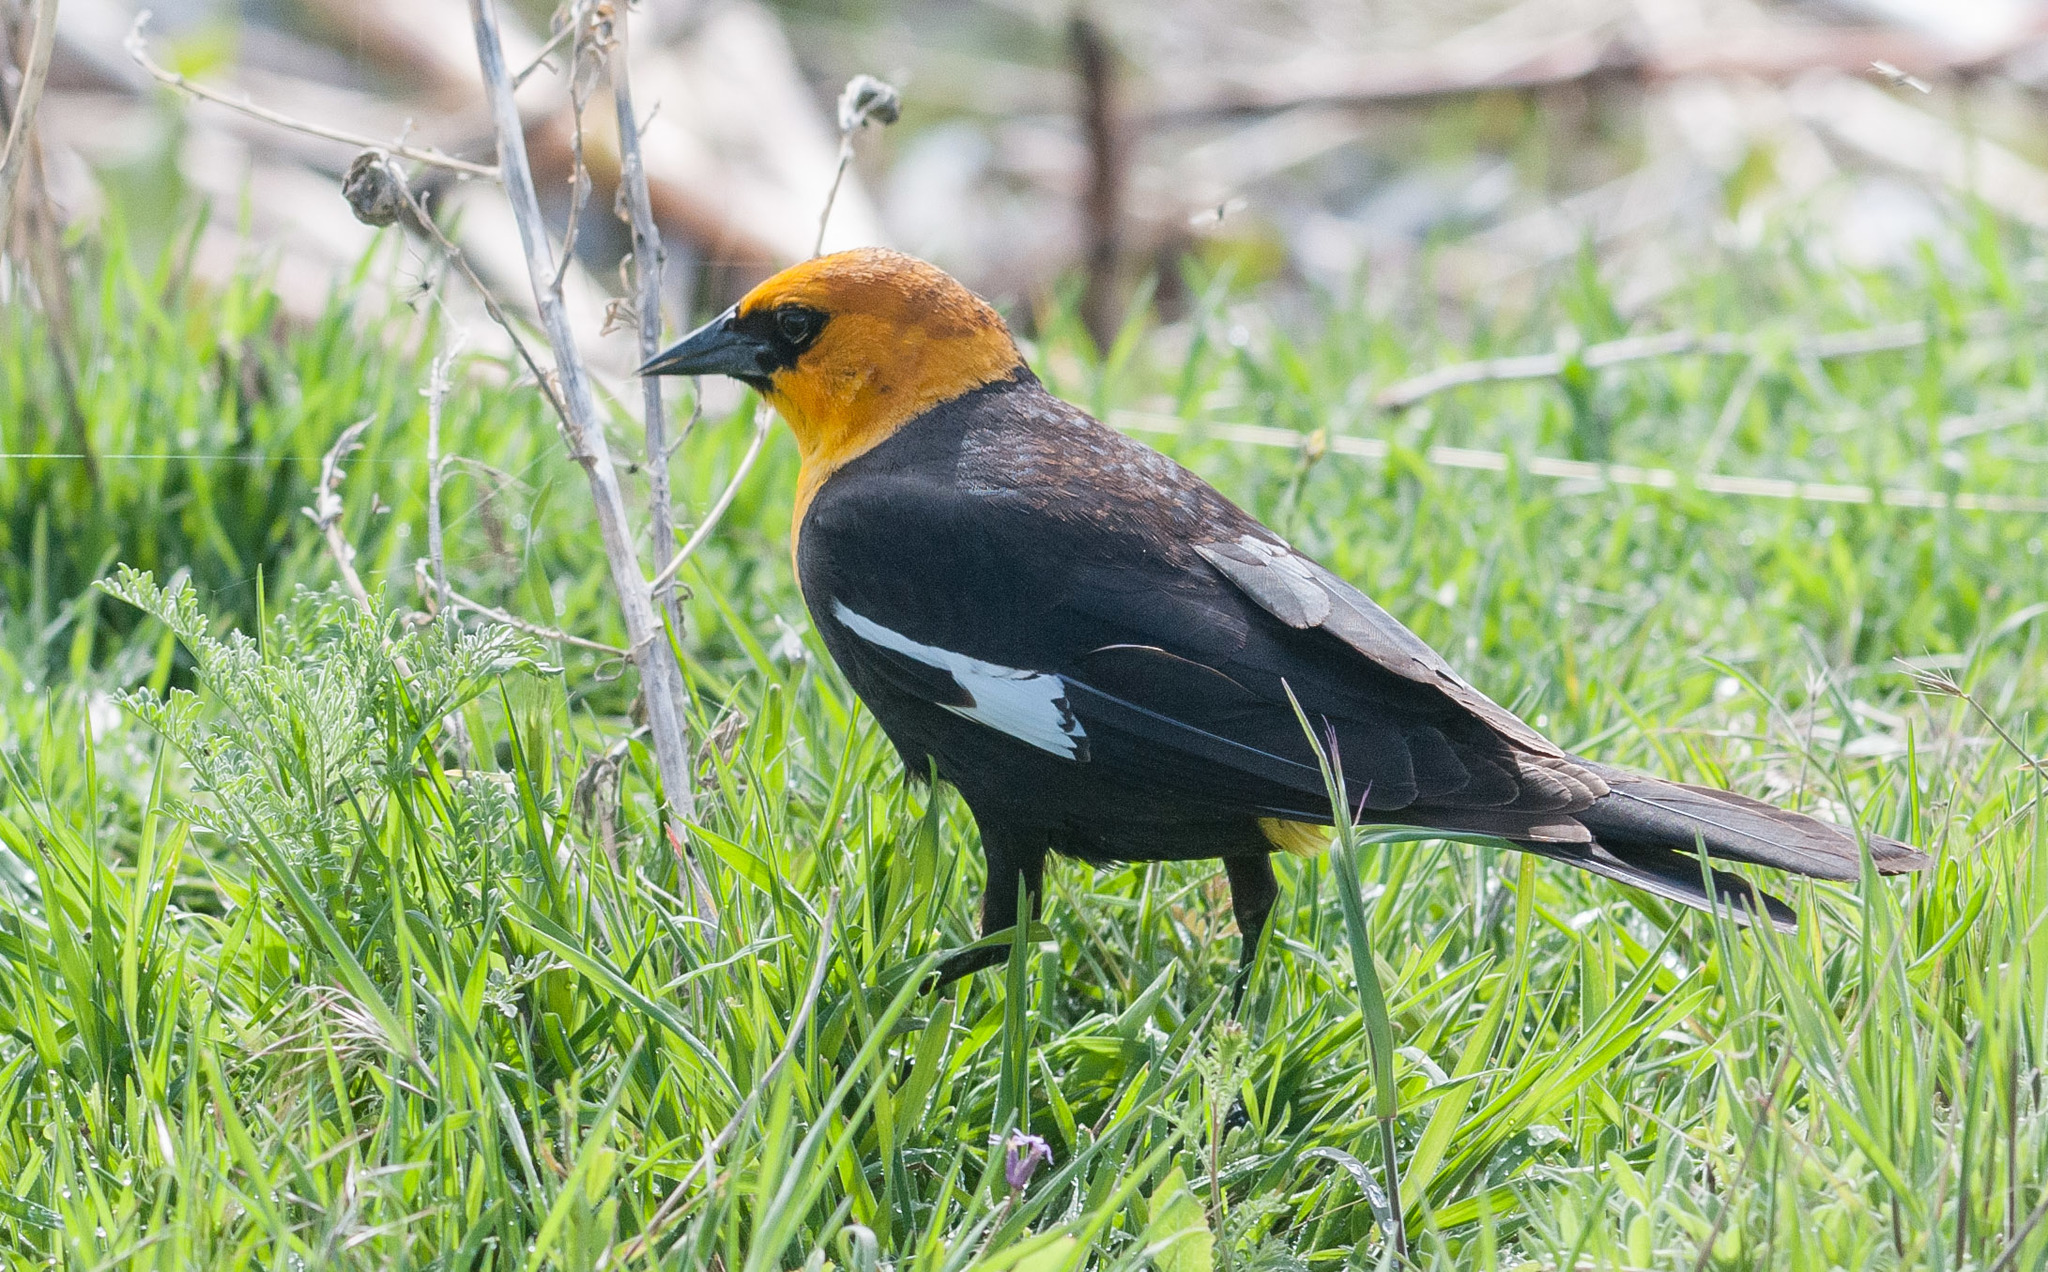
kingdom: Animalia
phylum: Chordata
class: Aves
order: Passeriformes
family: Icteridae
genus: Xanthocephalus
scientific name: Xanthocephalus xanthocephalus
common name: Yellow-headed blackbird
